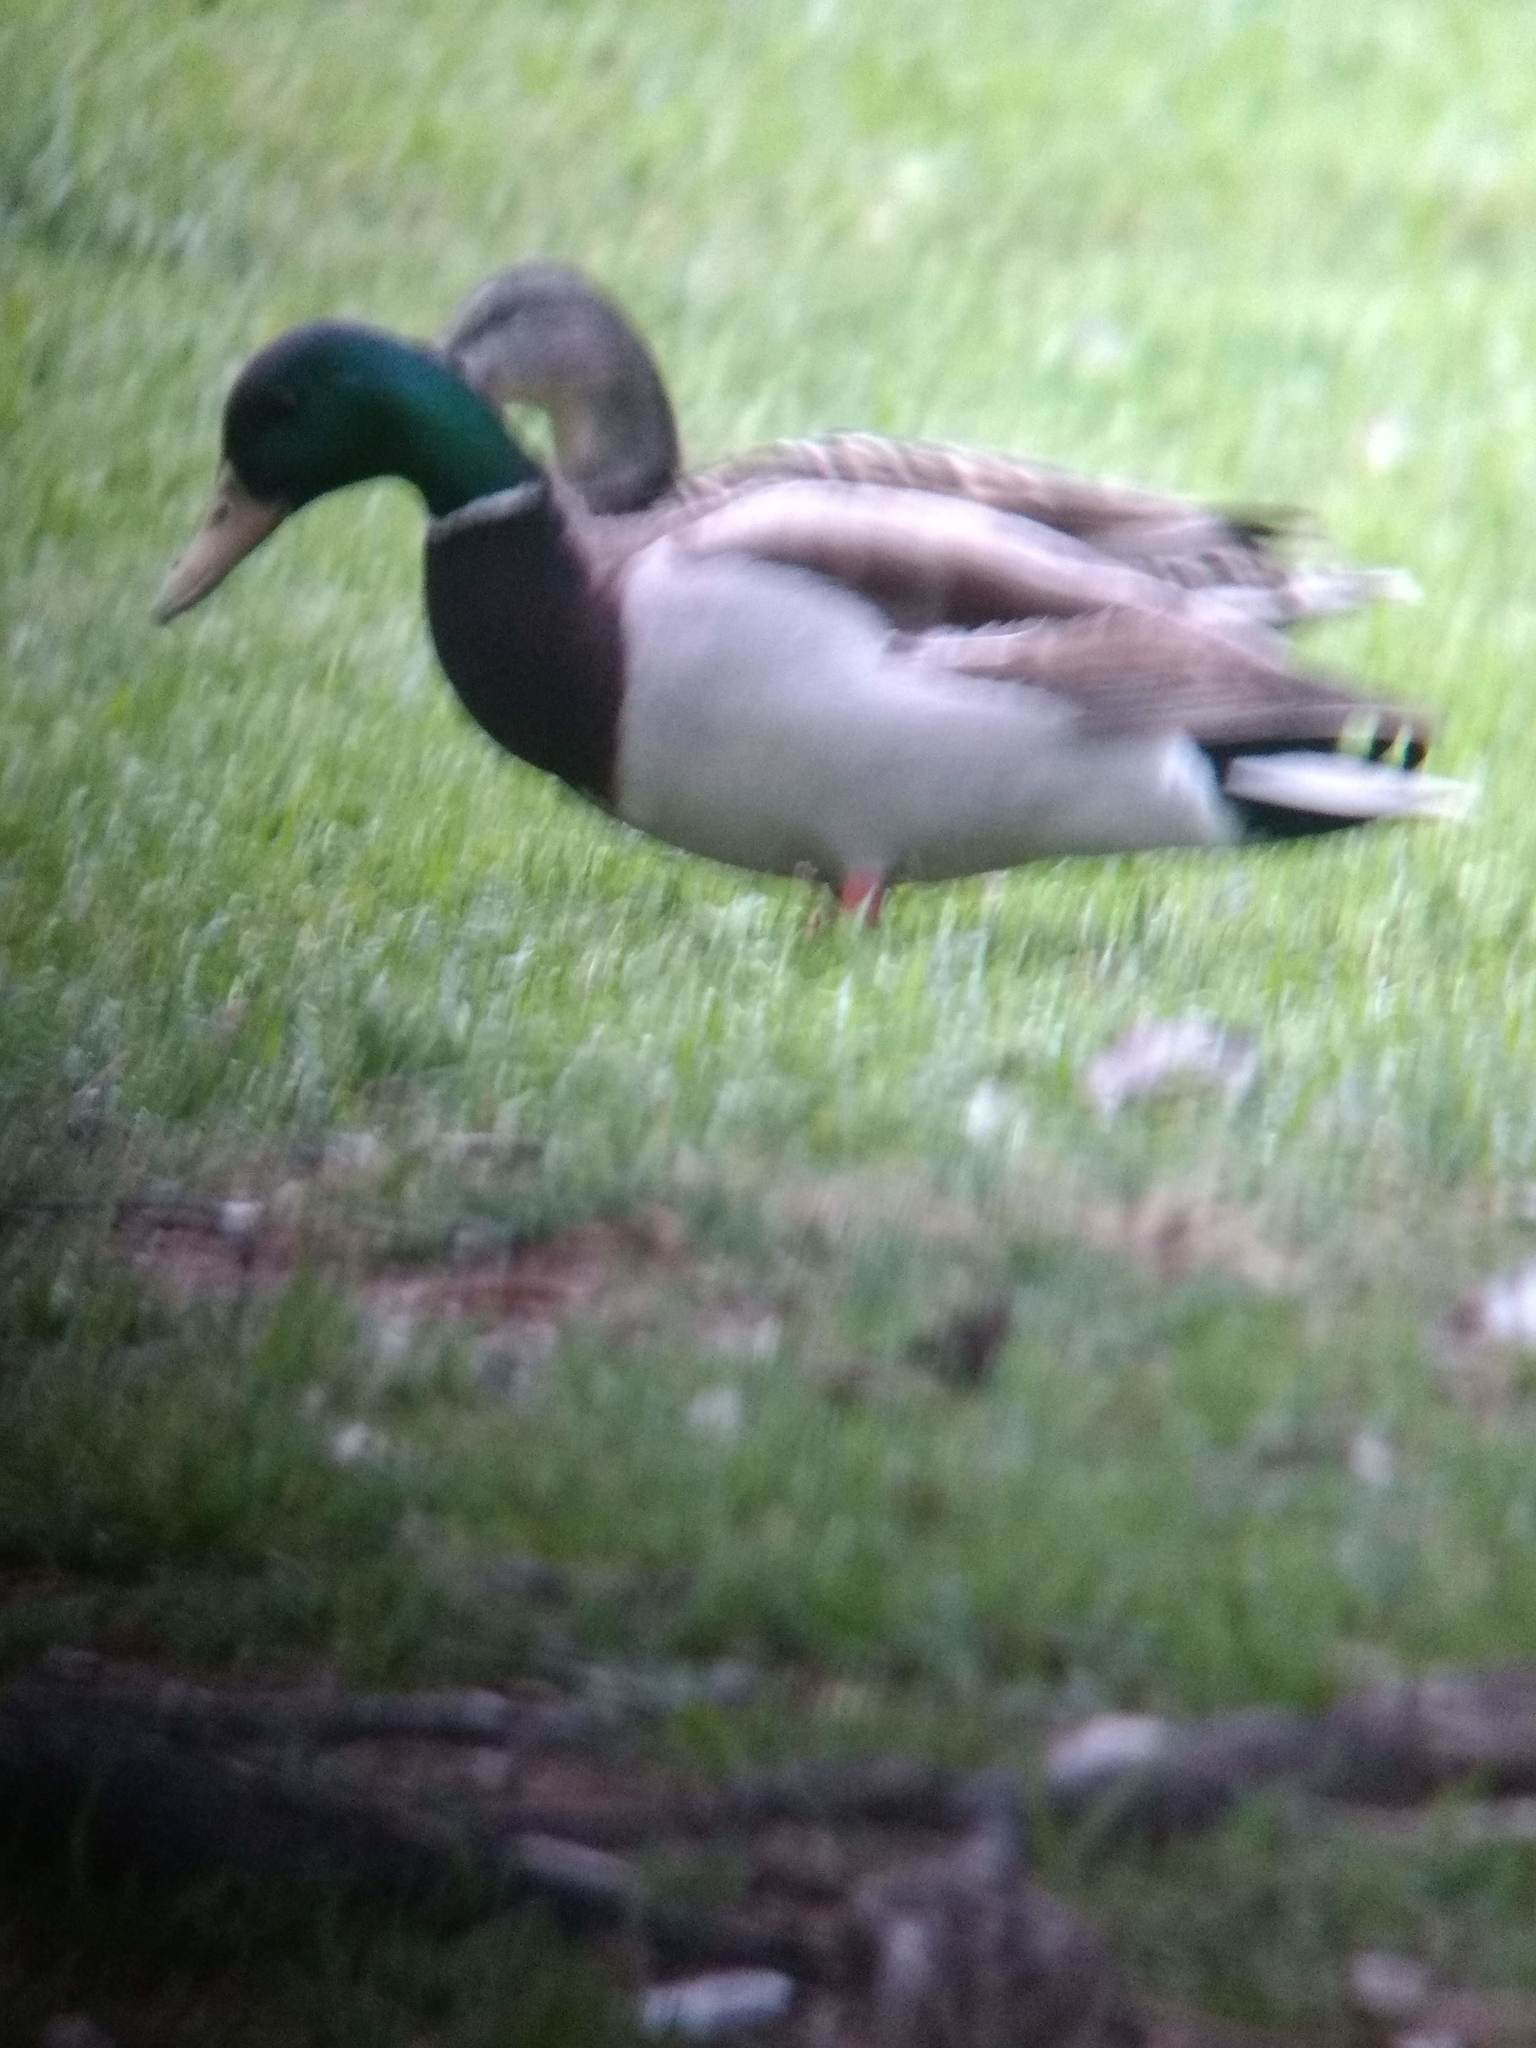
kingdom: Animalia
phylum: Chordata
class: Aves
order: Anseriformes
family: Anatidae
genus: Anas
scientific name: Anas platyrhynchos
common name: Mallard
